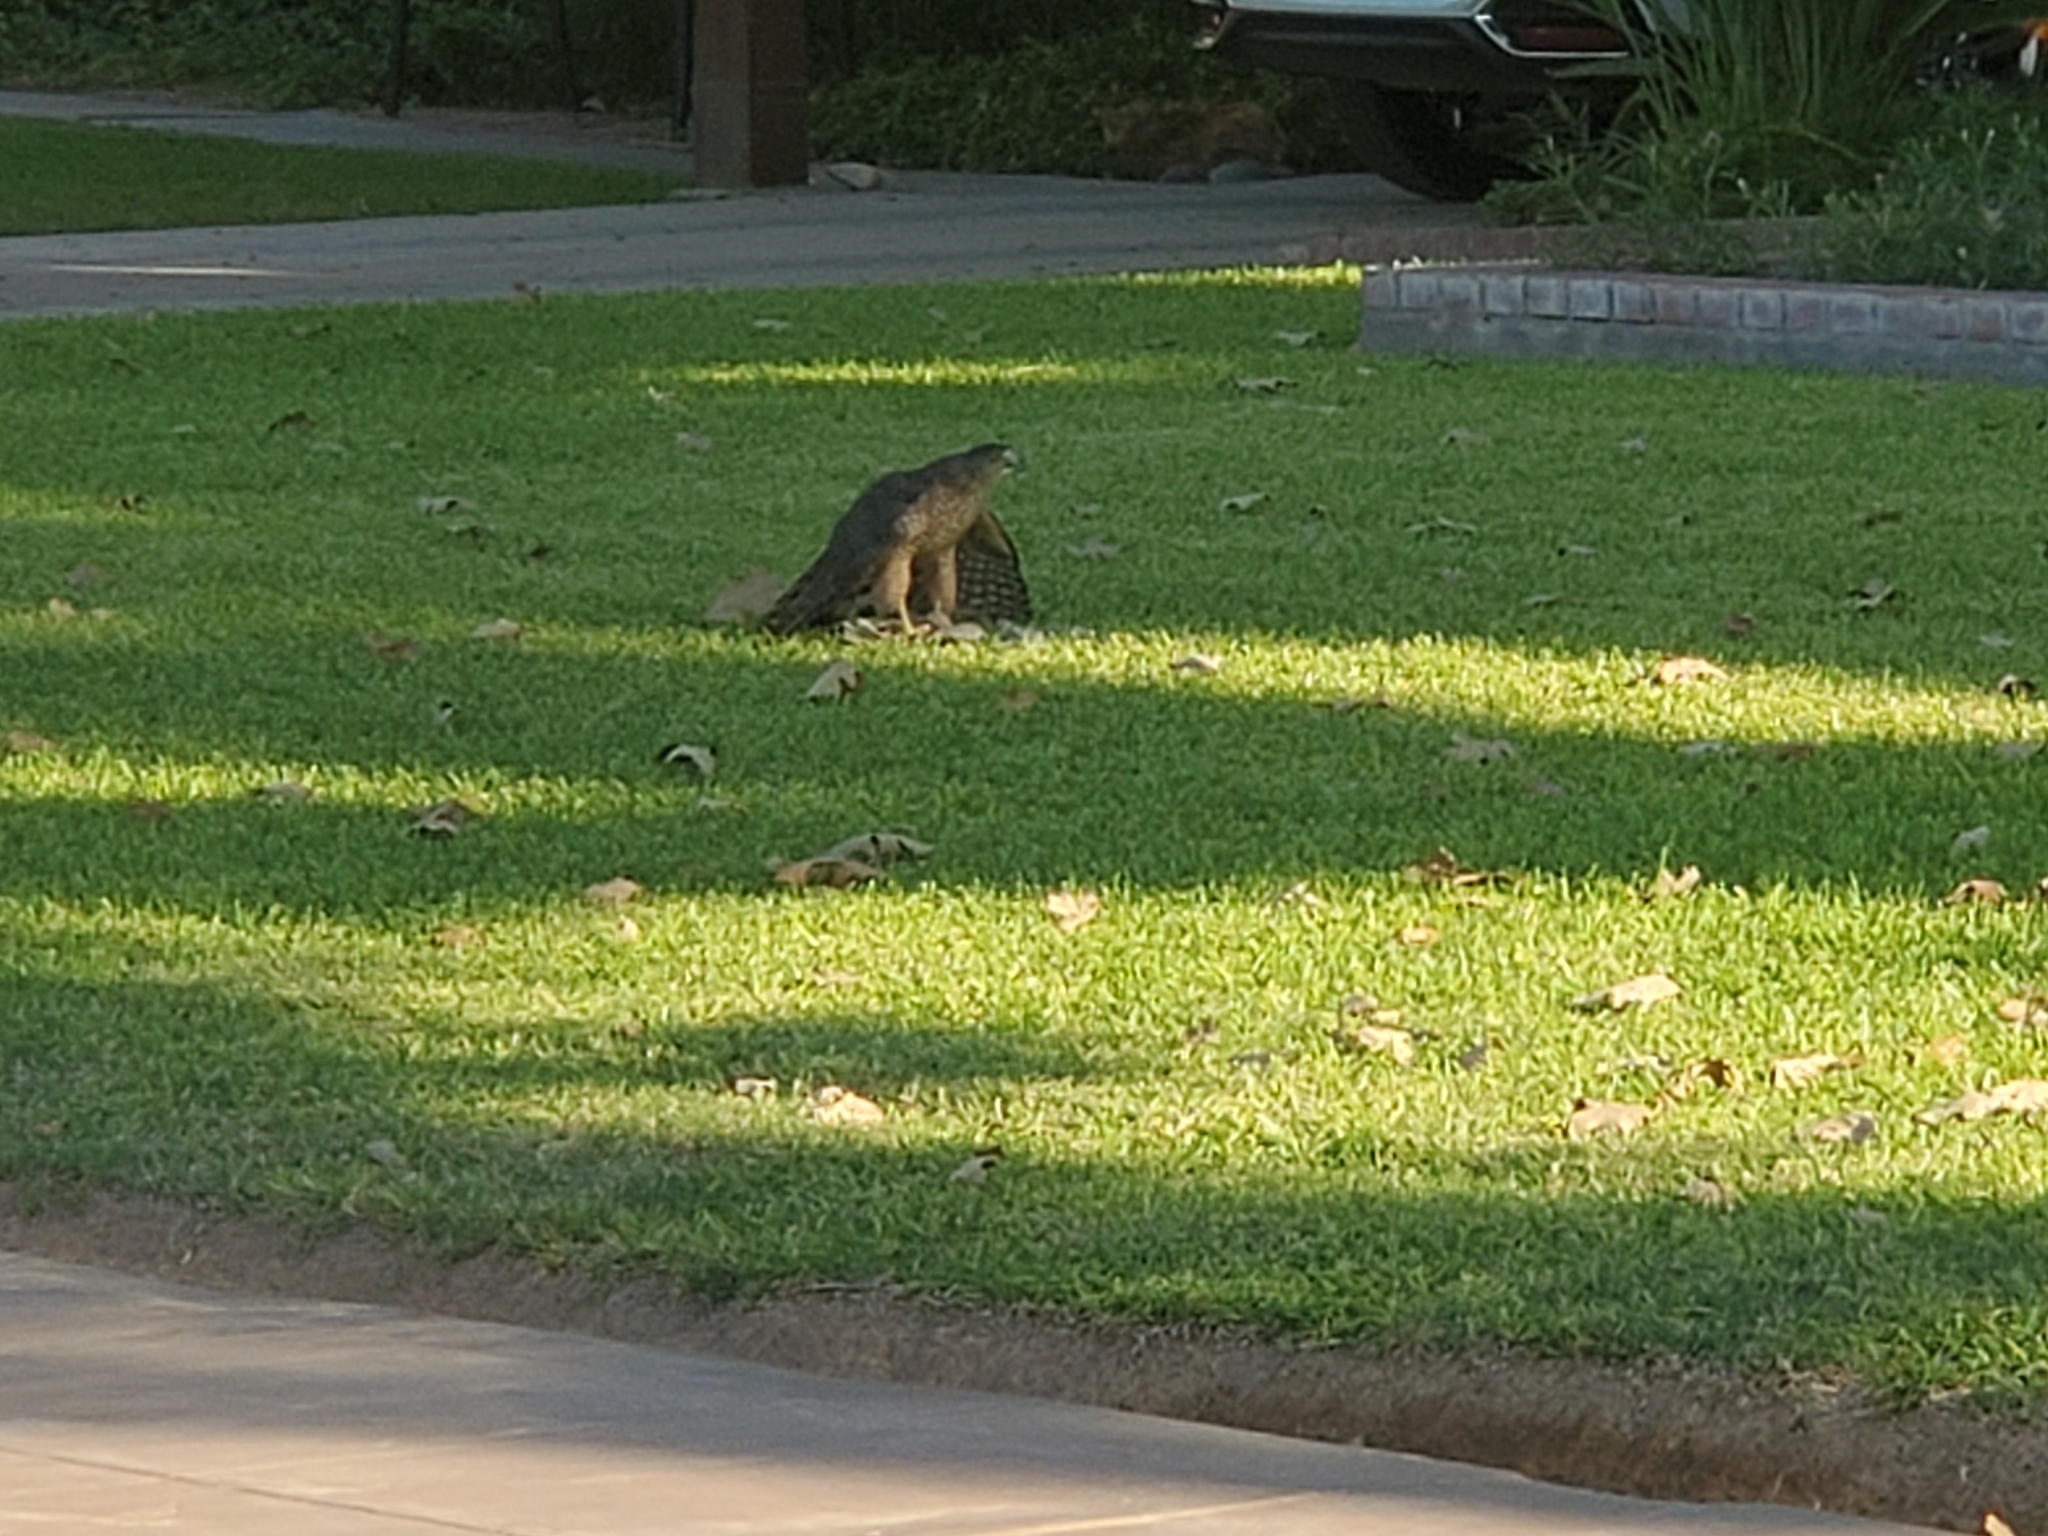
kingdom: Animalia
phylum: Chordata
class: Aves
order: Accipitriformes
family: Accipitridae
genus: Accipiter
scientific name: Accipiter cooperii
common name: Cooper's hawk
